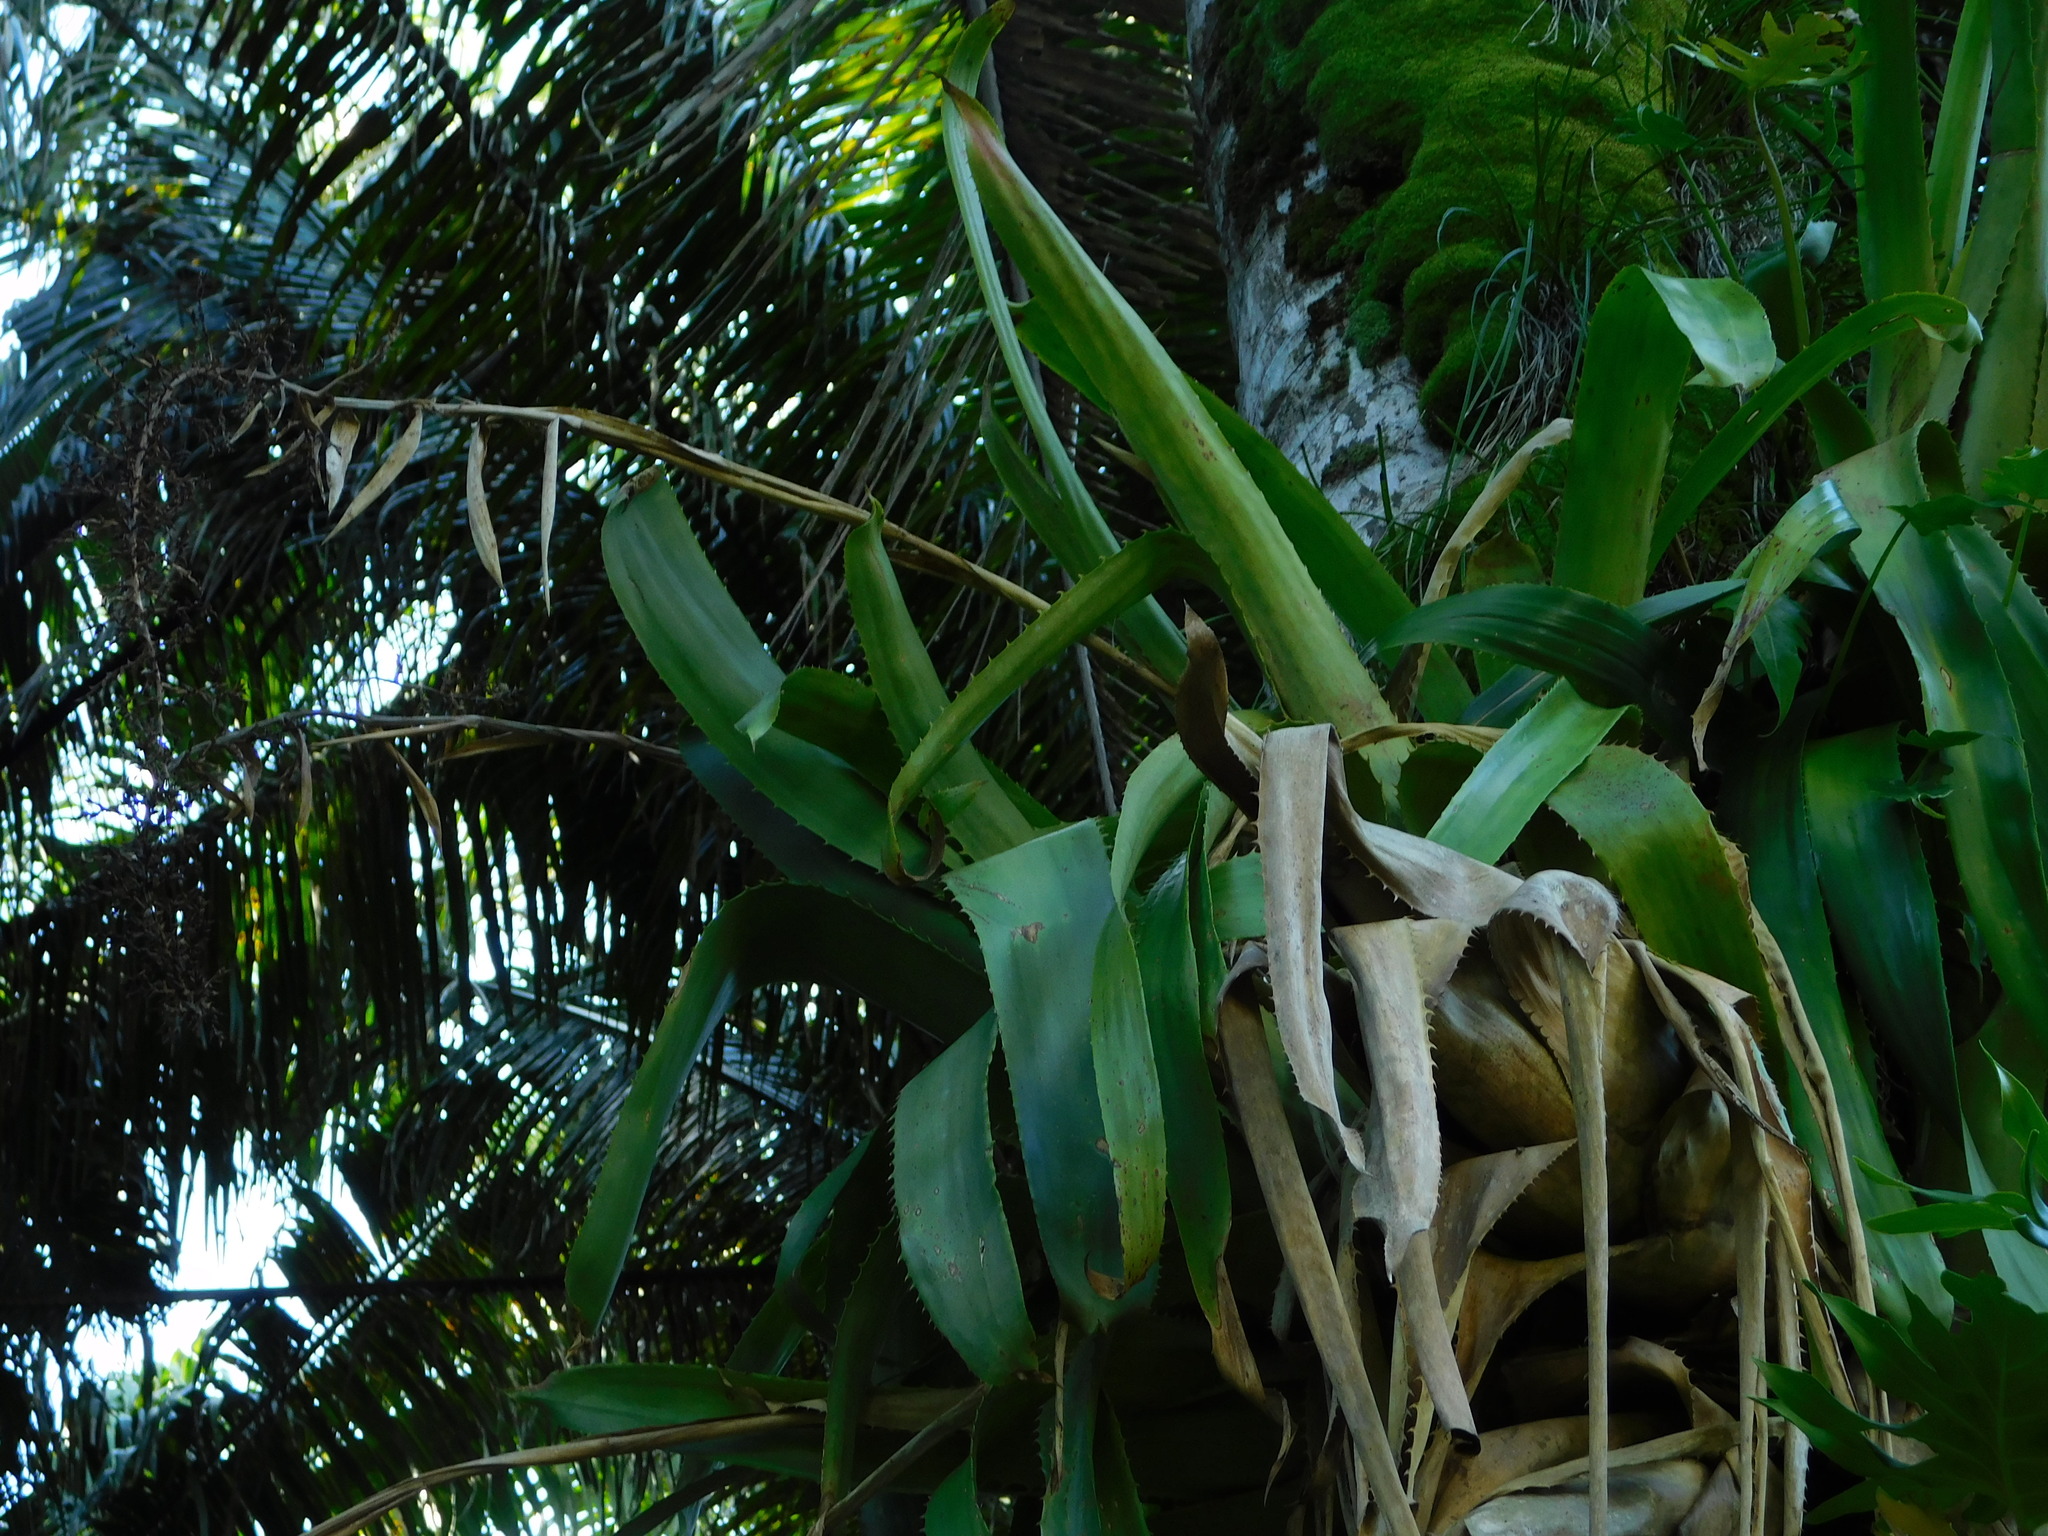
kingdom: Plantae
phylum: Tracheophyta
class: Liliopsida
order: Poales
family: Bromeliaceae
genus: Aechmea
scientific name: Aechmea bracteata
